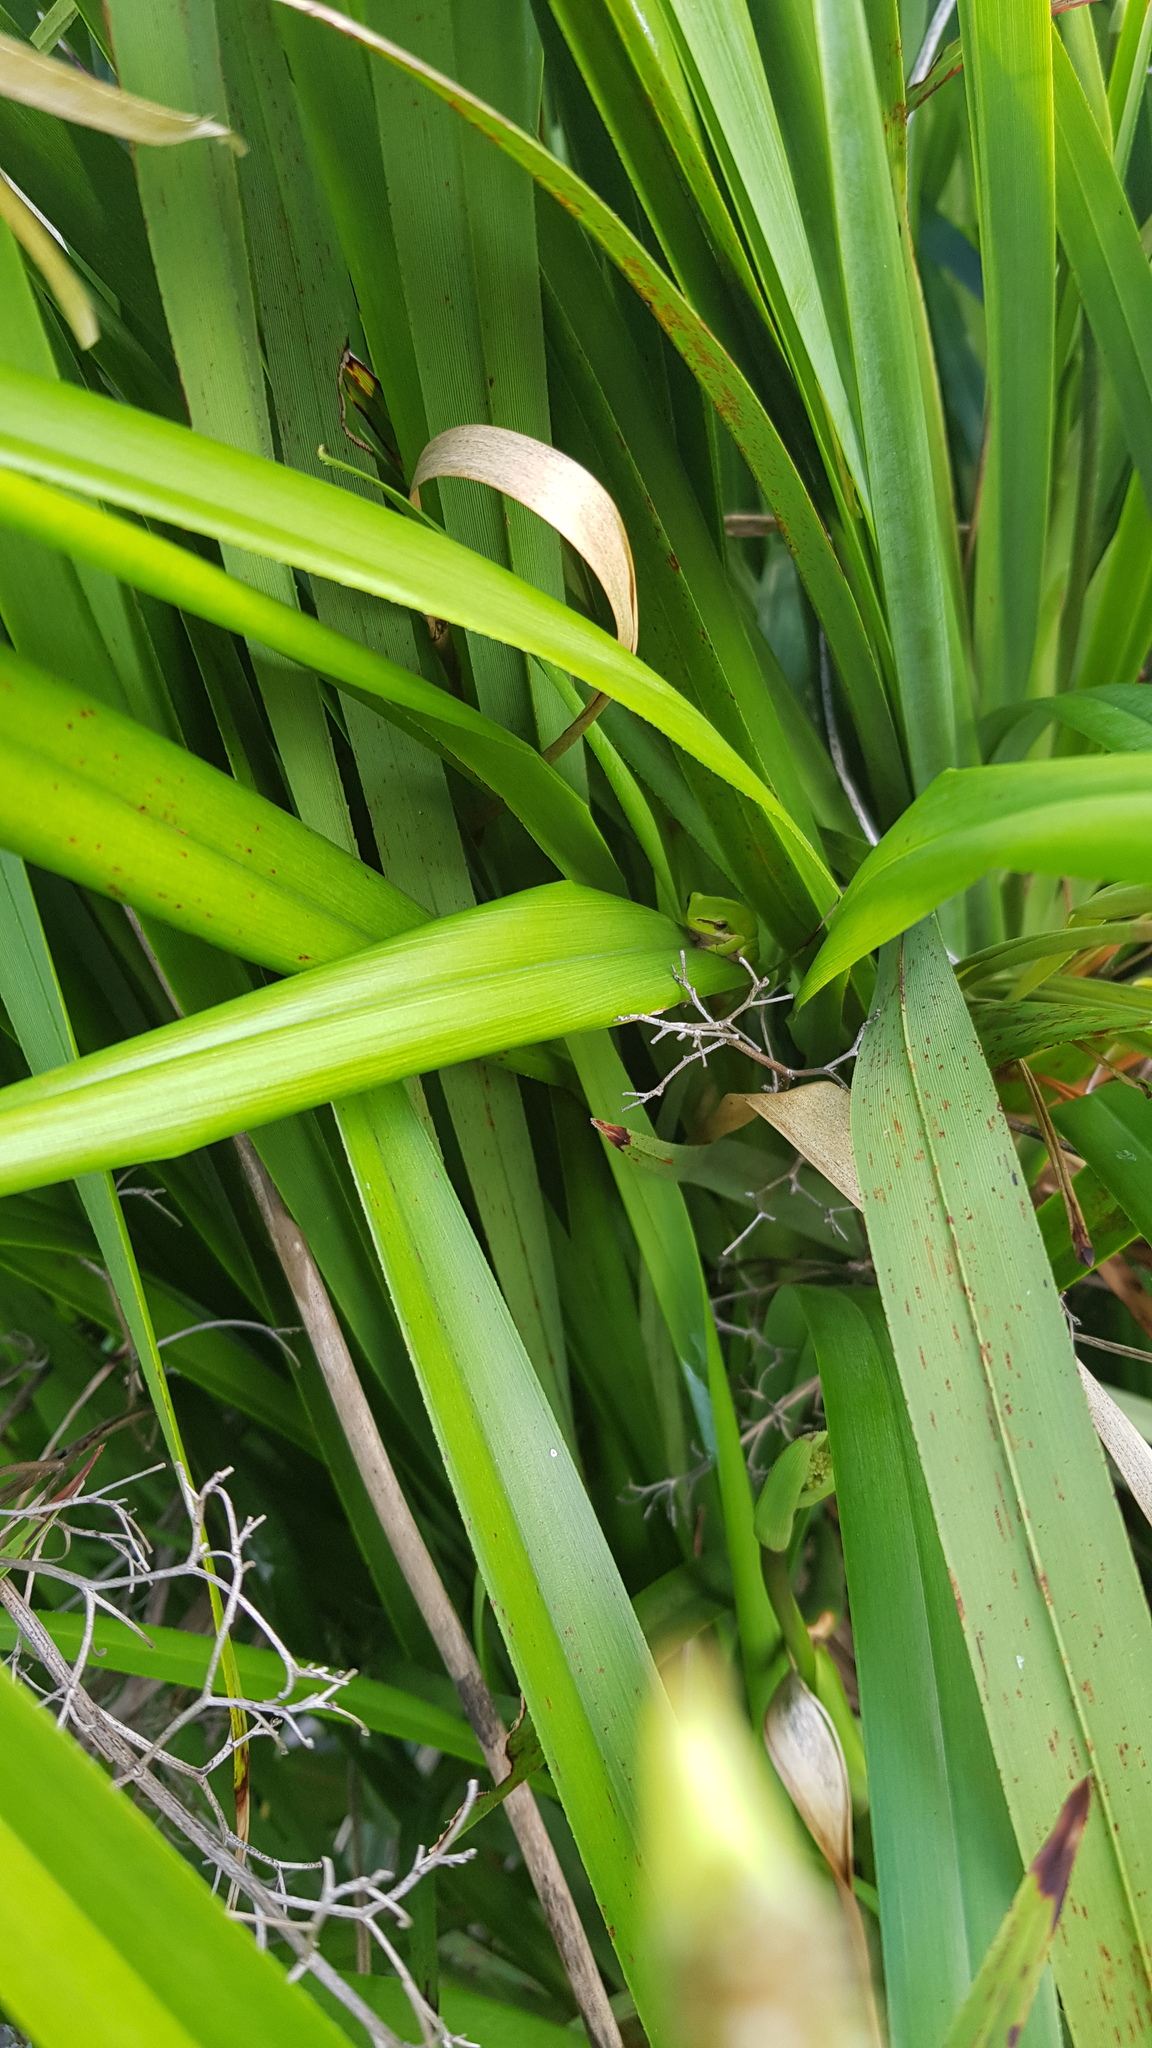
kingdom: Animalia
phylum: Chordata
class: Amphibia
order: Anura
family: Pelodryadidae
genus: Litoria
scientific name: Litoria fallax
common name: Eastern dwarf treefrog
